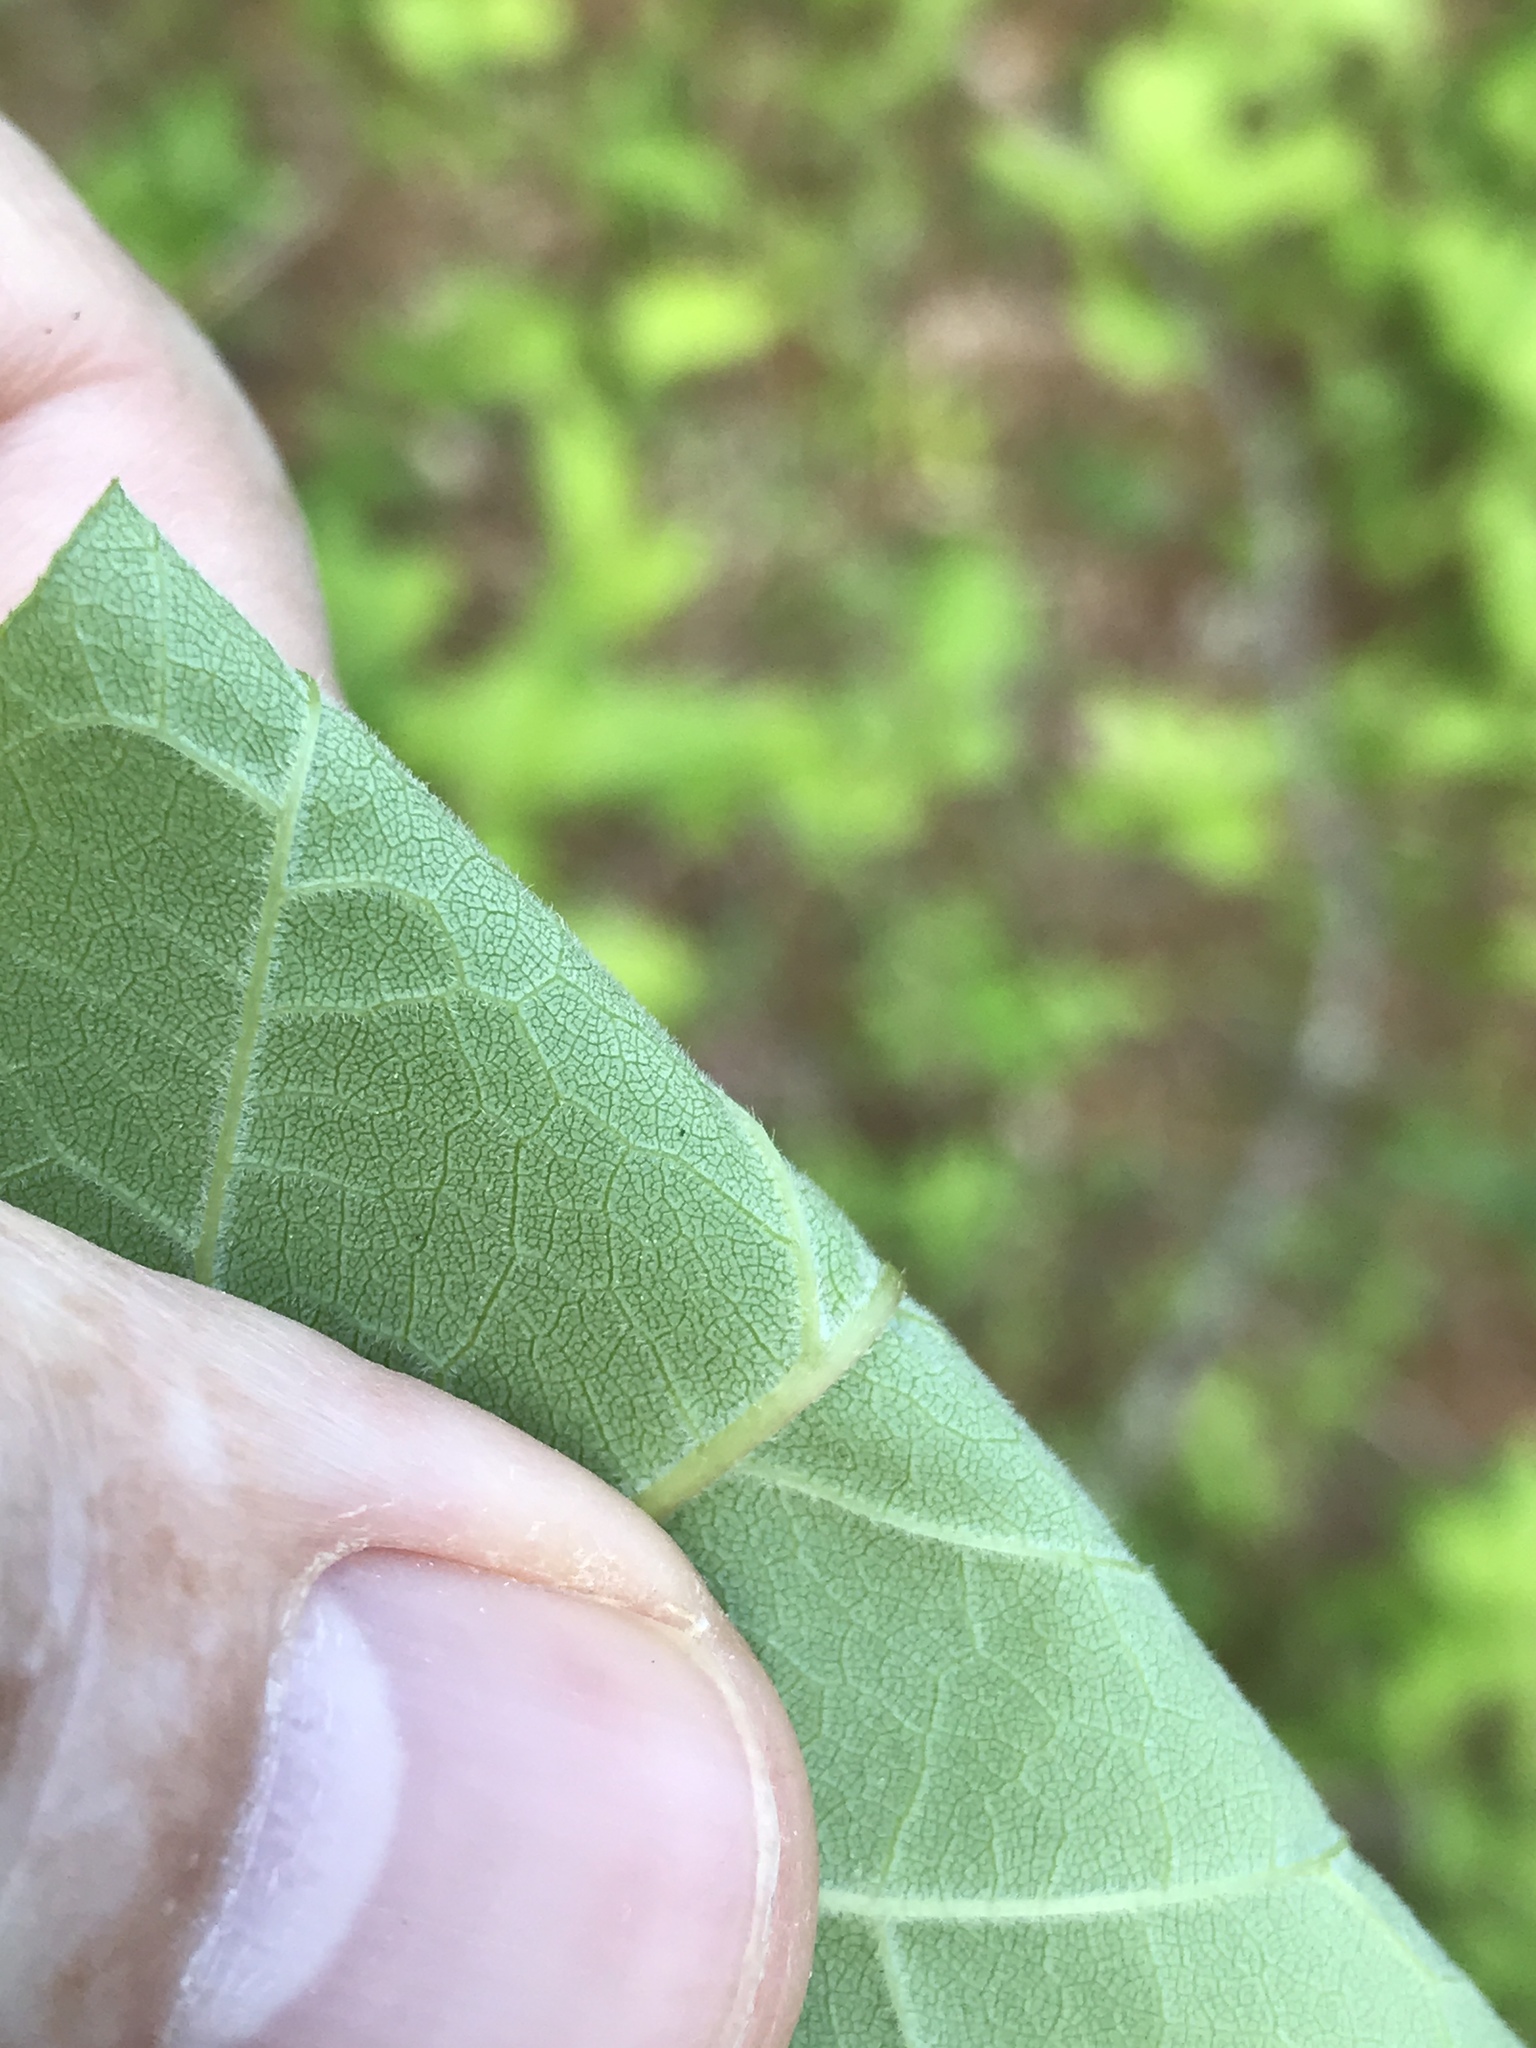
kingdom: Plantae
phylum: Tracheophyta
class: Magnoliopsida
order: Lamiales
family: Oleaceae
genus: Fraxinus
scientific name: Fraxinus americana
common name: White ash
